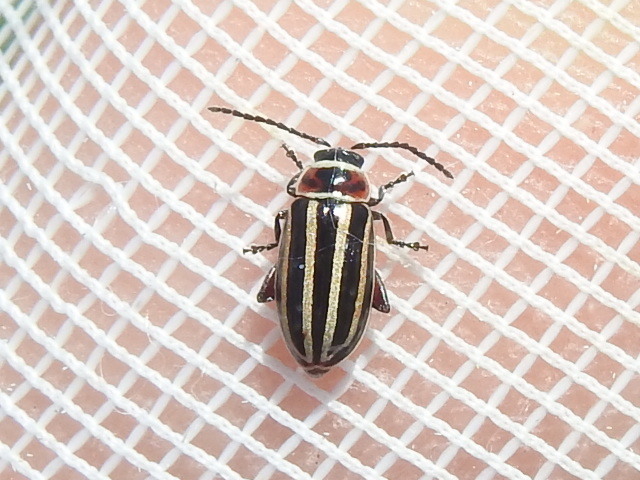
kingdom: Animalia
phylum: Arthropoda
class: Insecta
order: Coleoptera
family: Chrysomelidae
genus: Disonycha
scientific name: Disonycha procera
